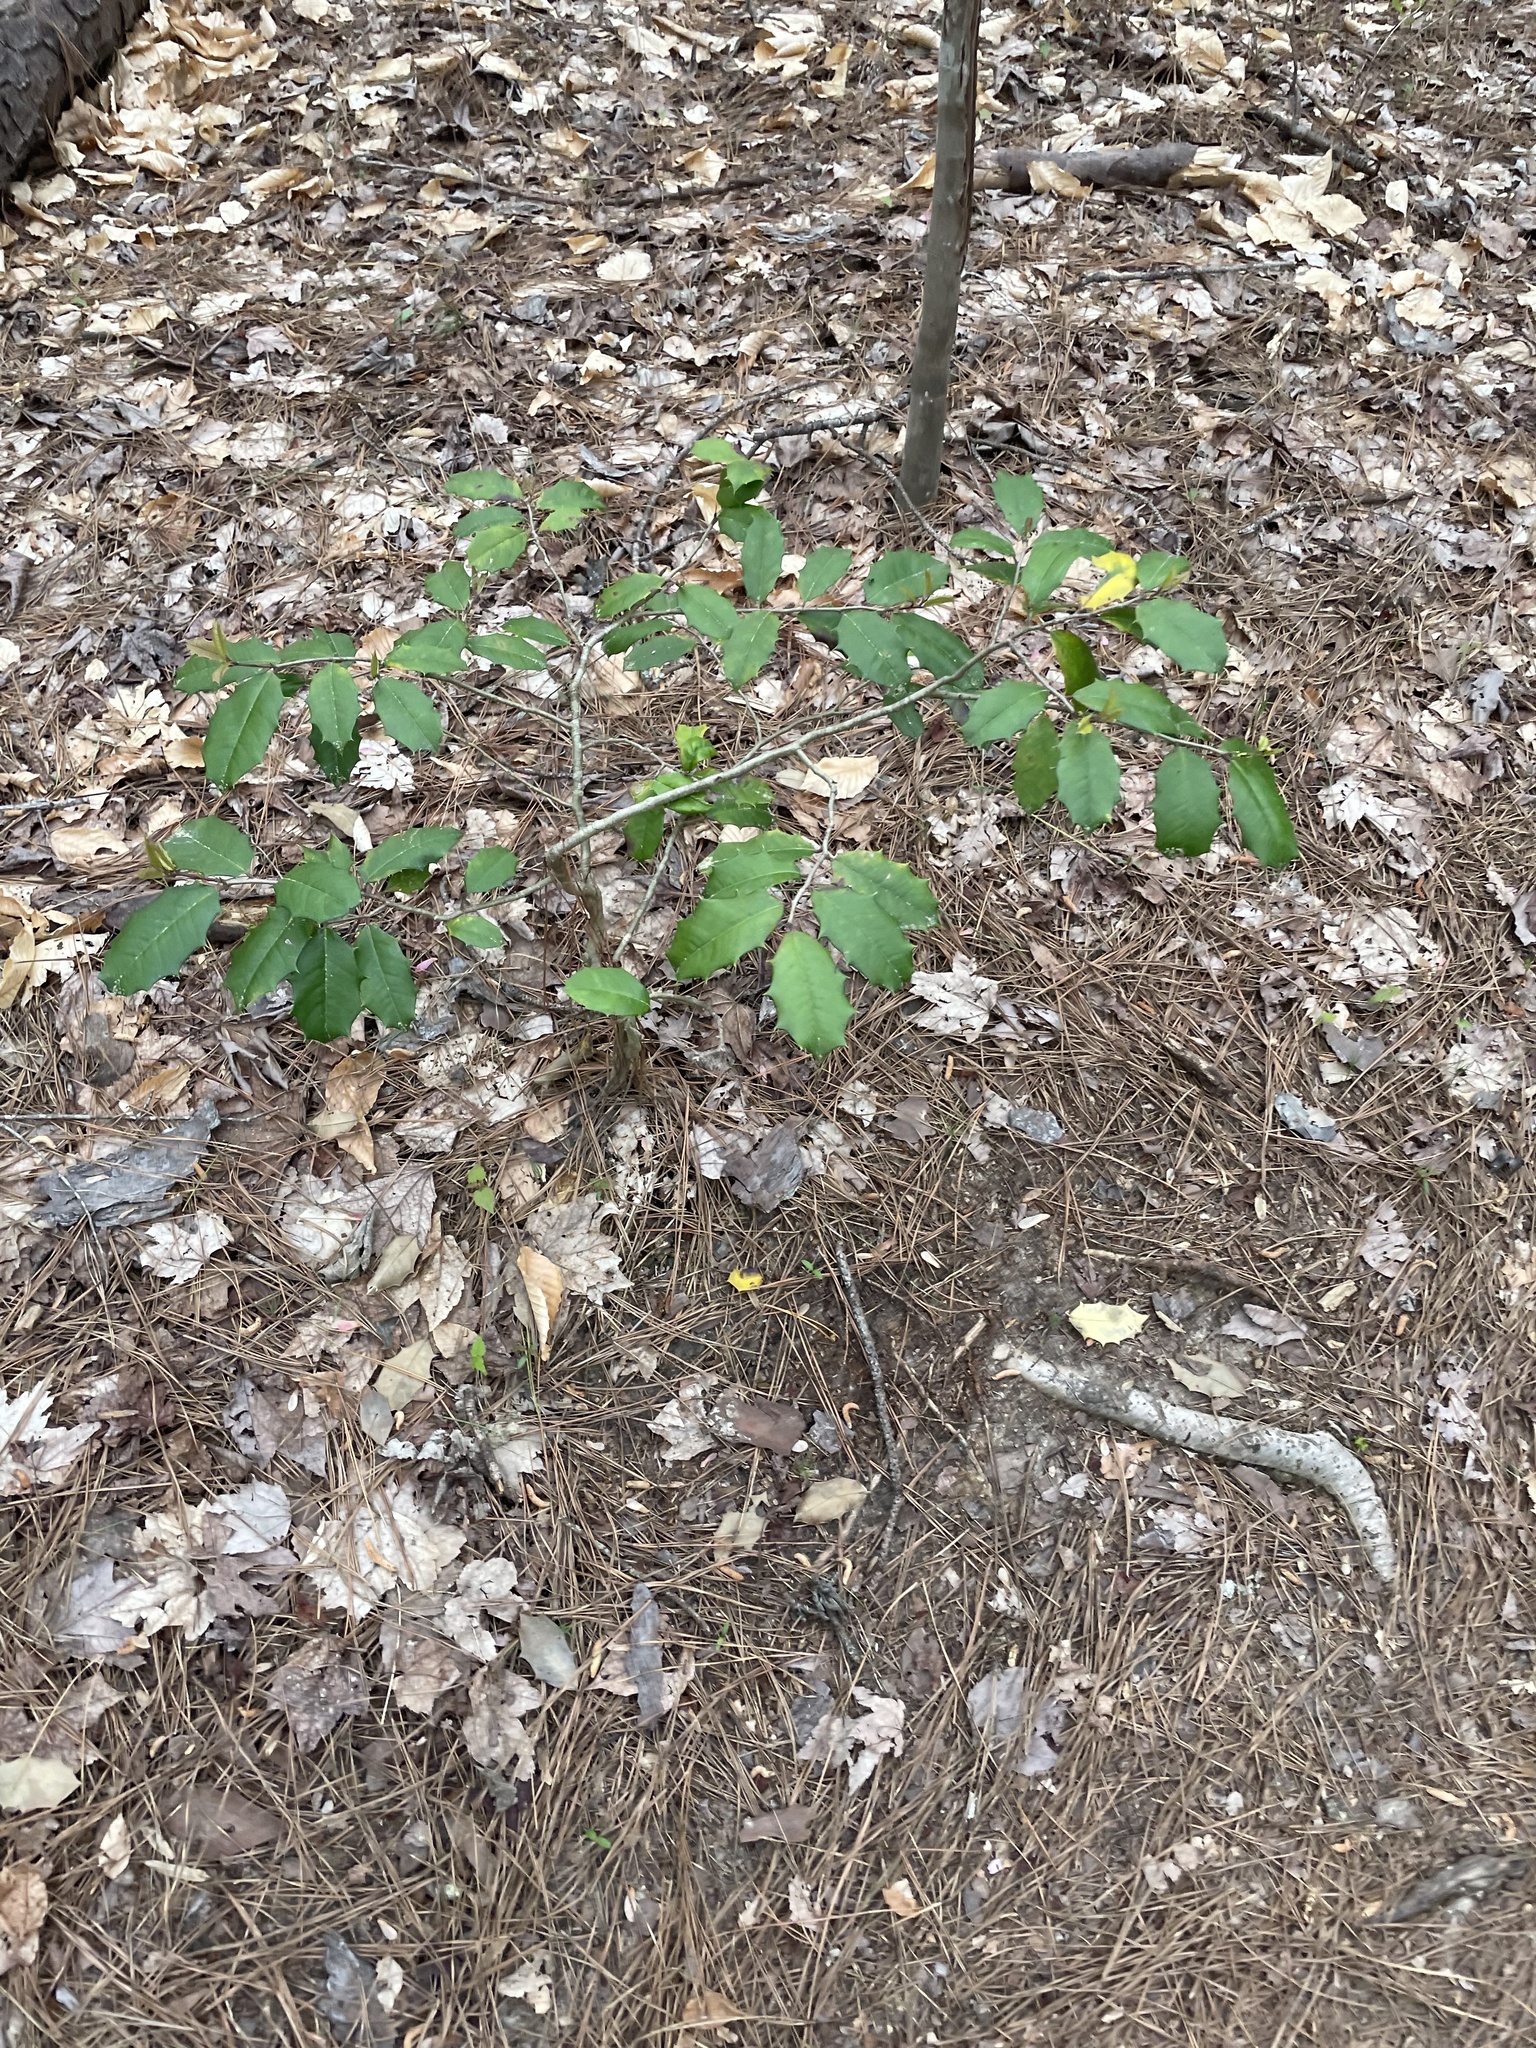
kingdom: Plantae
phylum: Tracheophyta
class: Magnoliopsida
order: Aquifoliales
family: Aquifoliaceae
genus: Ilex
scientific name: Ilex opaca
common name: American holly
